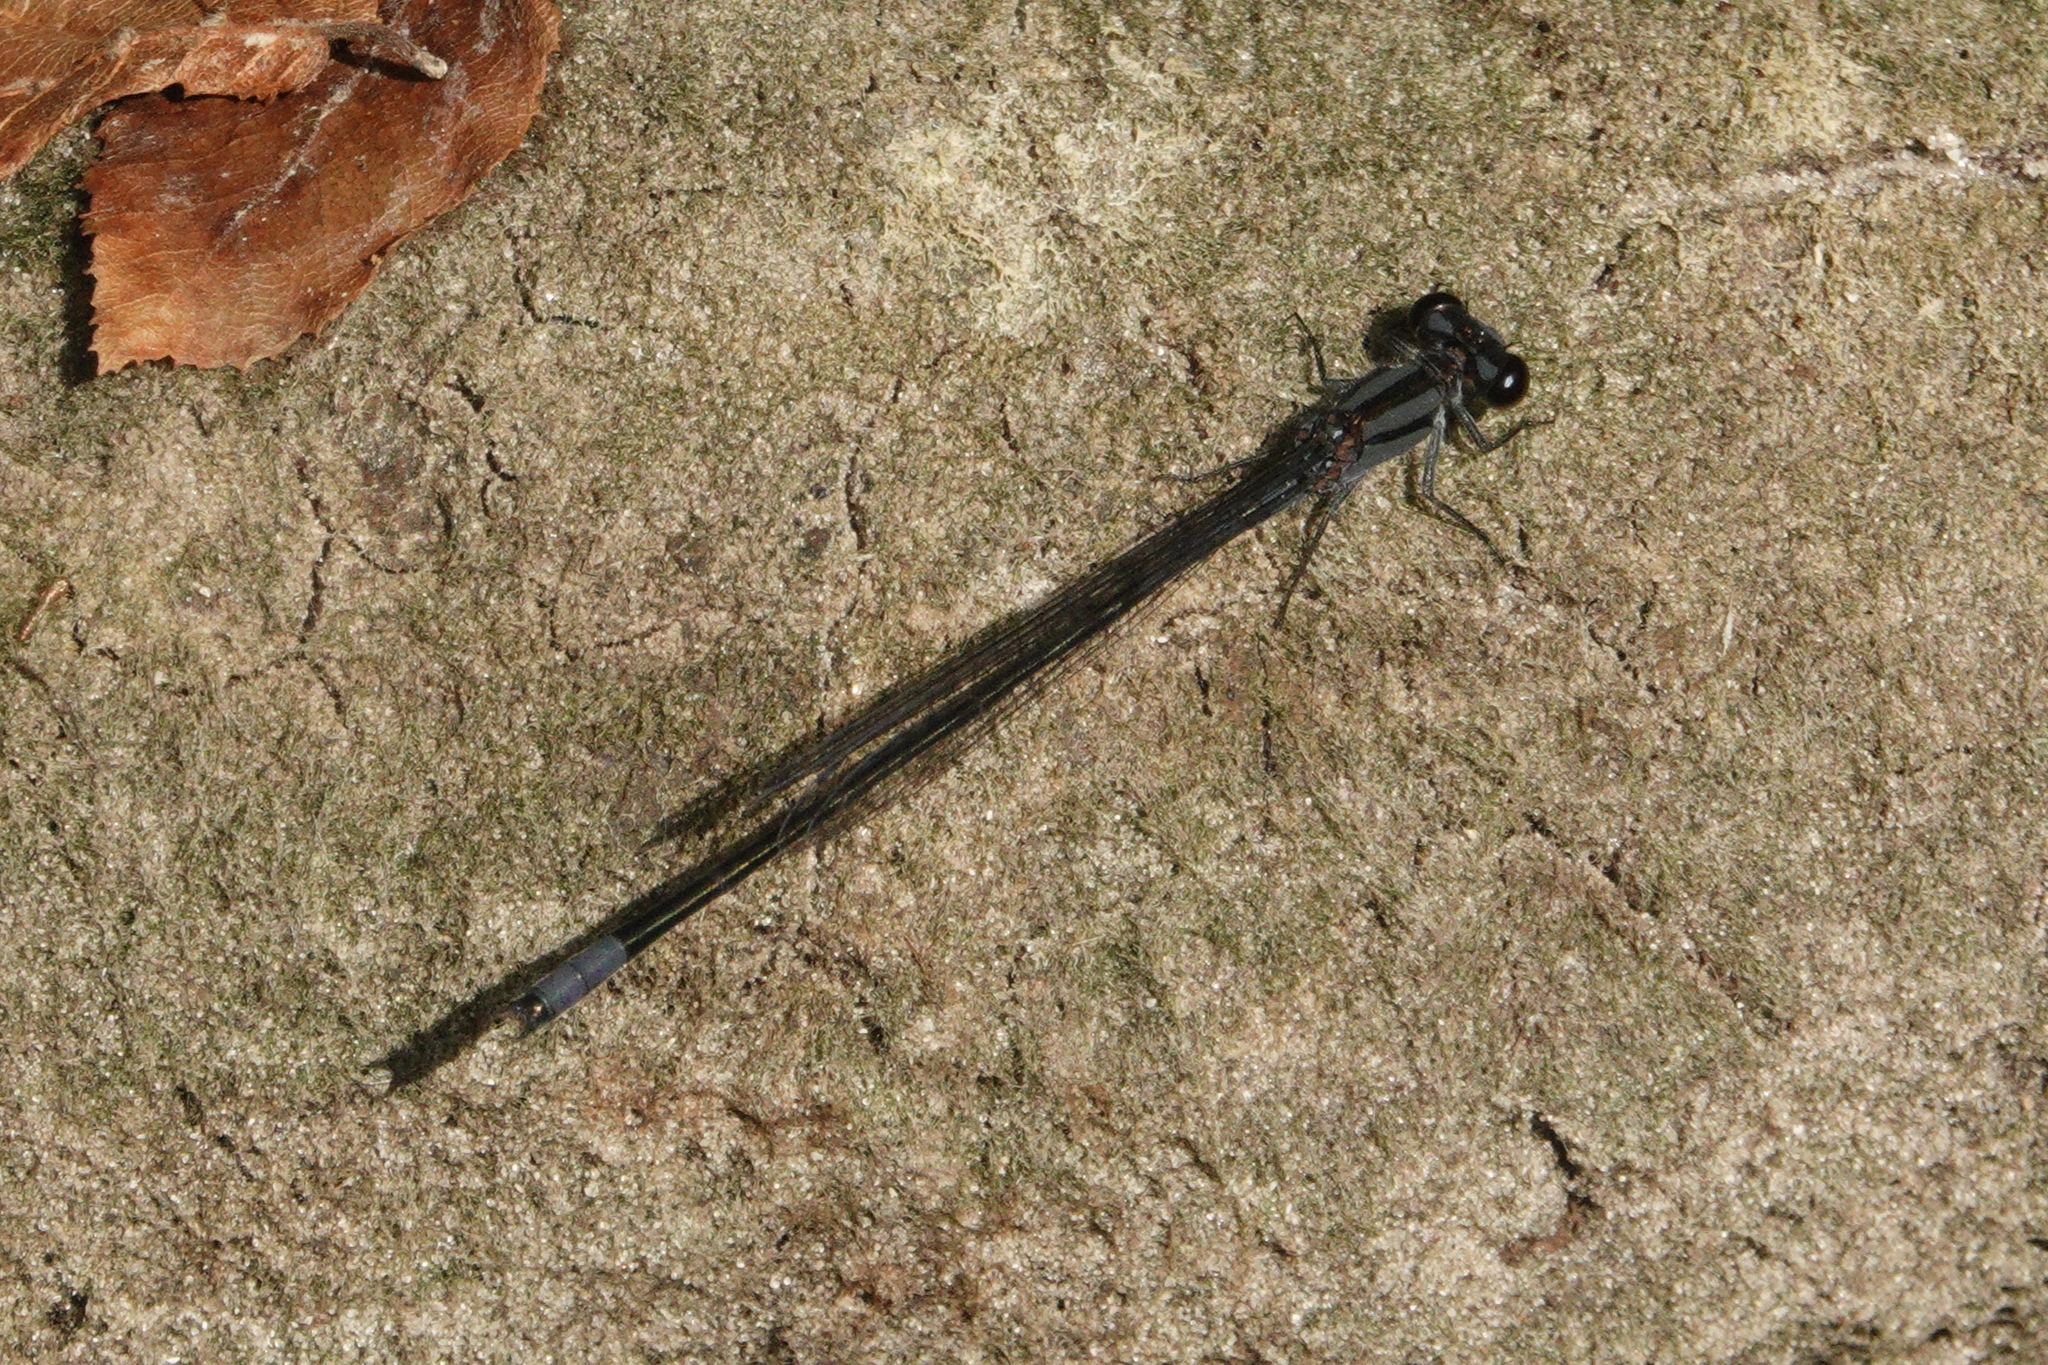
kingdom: Animalia
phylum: Arthropoda
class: Insecta
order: Odonata
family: Coenagrionidae
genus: Enallagma
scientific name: Enallagma cardenium
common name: Purple bluet
